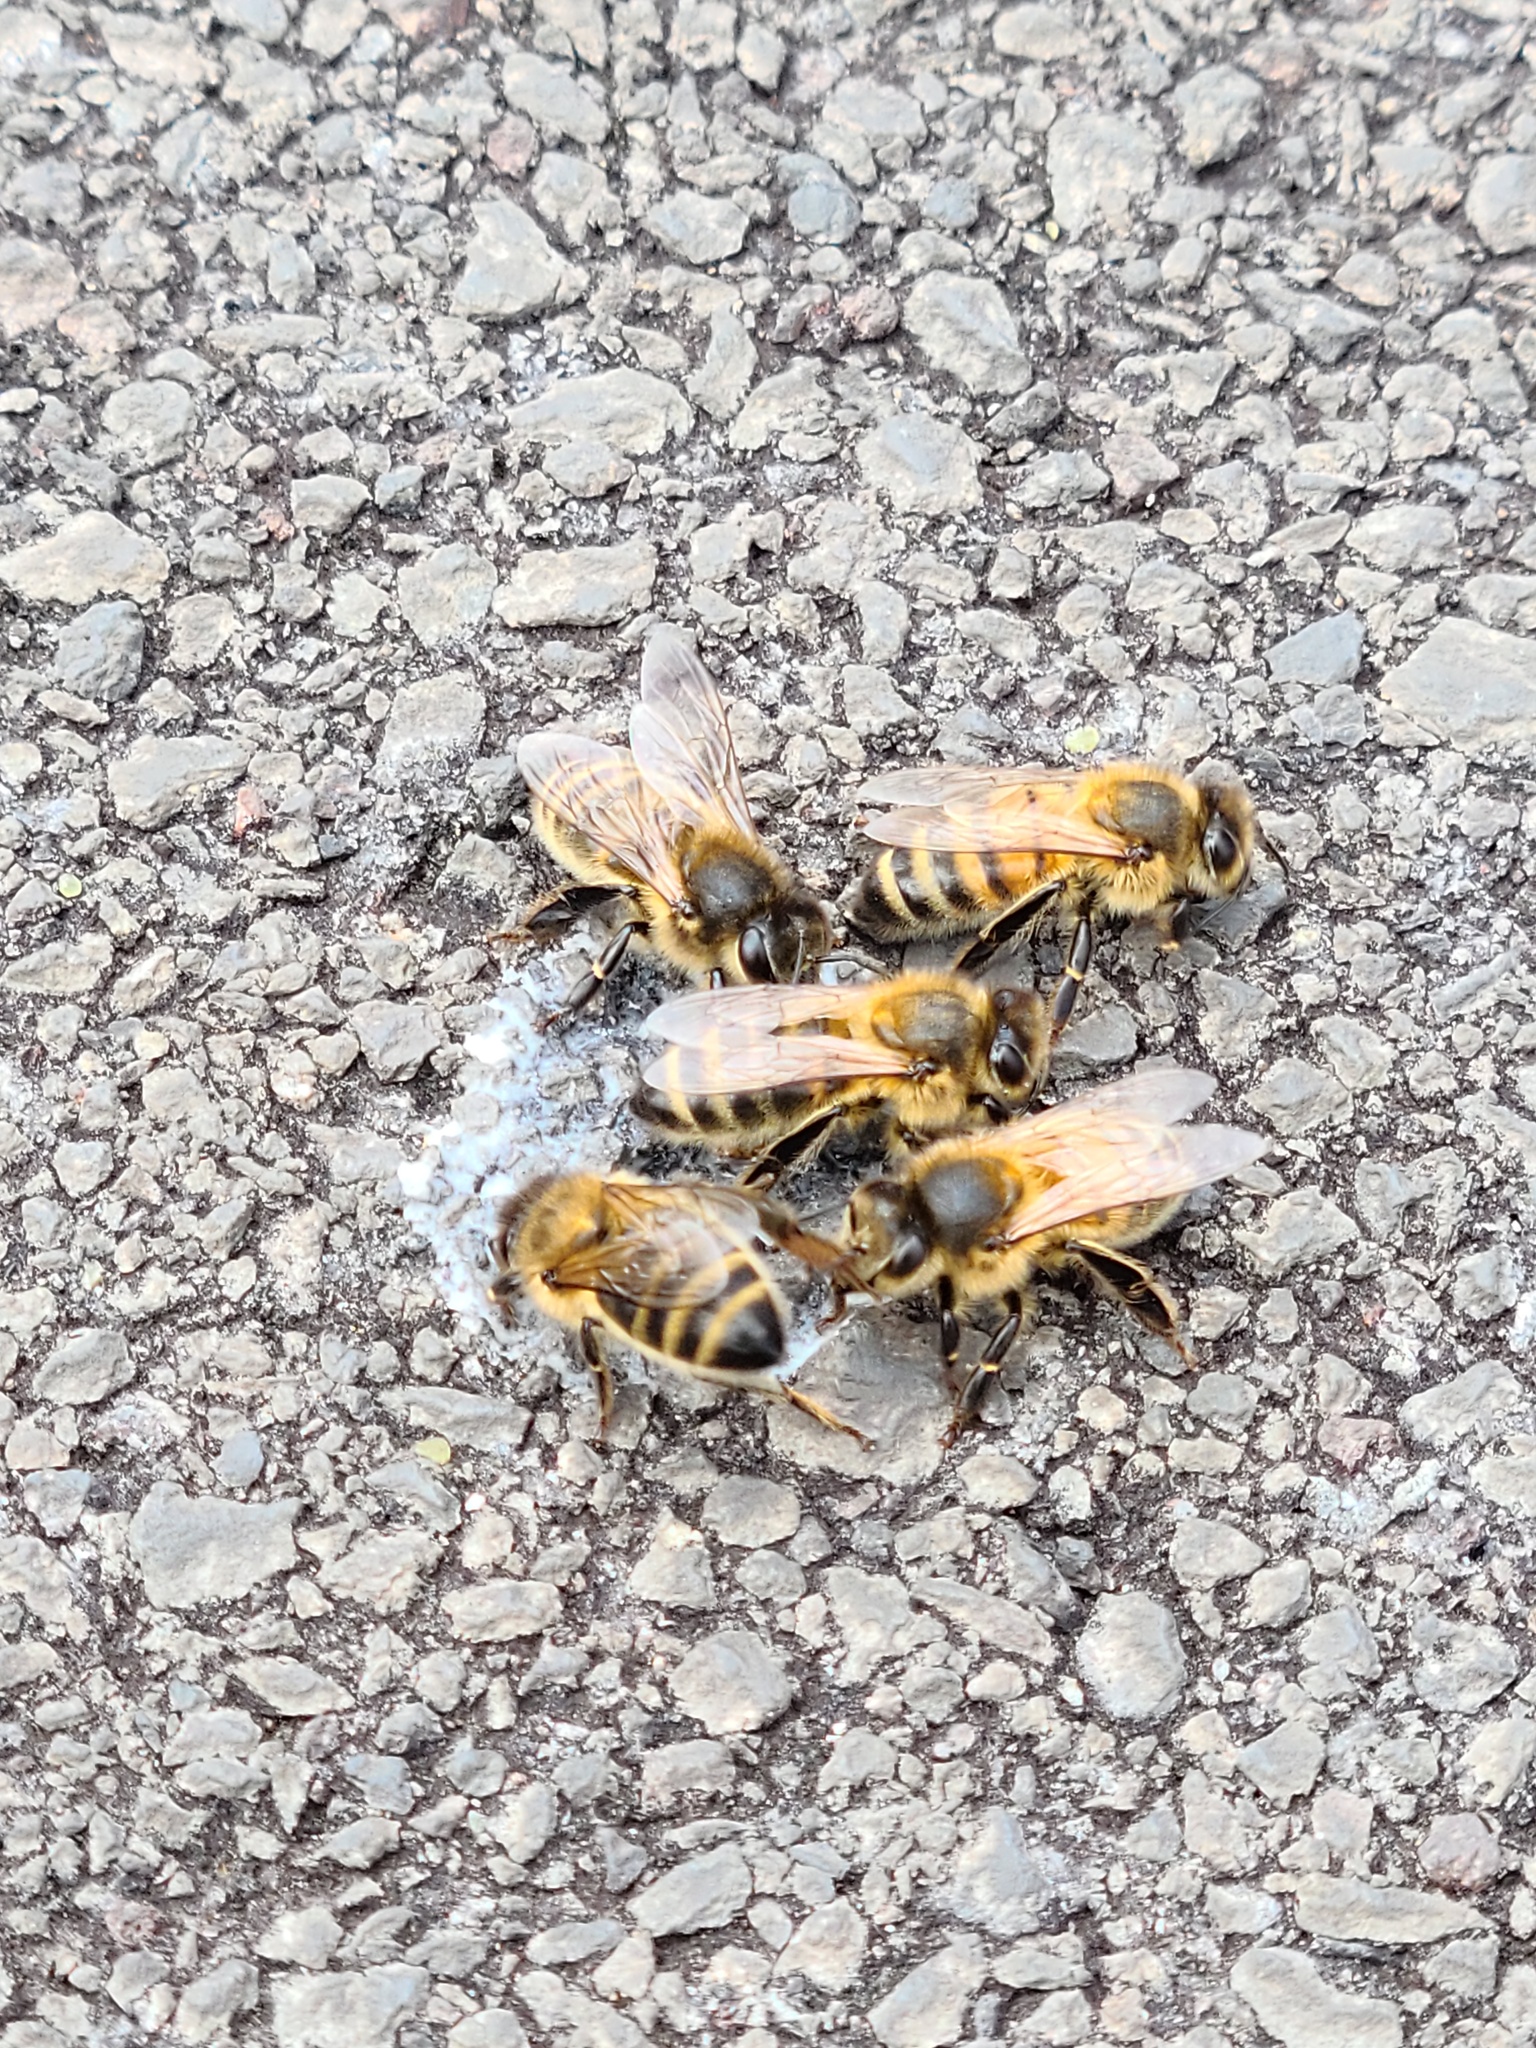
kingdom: Animalia
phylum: Arthropoda
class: Insecta
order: Hymenoptera
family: Apidae
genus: Apis
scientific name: Apis mellifera
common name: Honey bee
